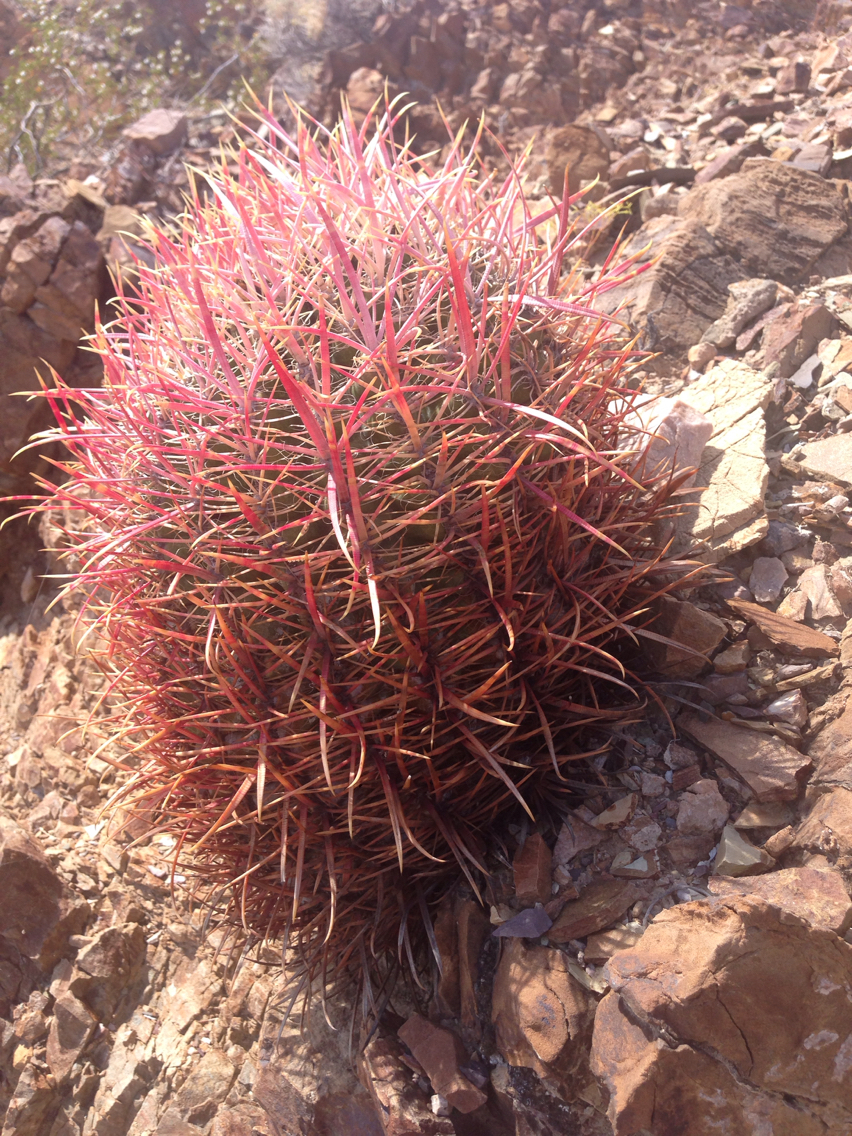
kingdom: Plantae
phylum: Tracheophyta
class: Magnoliopsida
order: Caryophyllales
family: Cactaceae
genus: Ferocactus
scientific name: Ferocactus cylindraceus
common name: California barrel cactus
